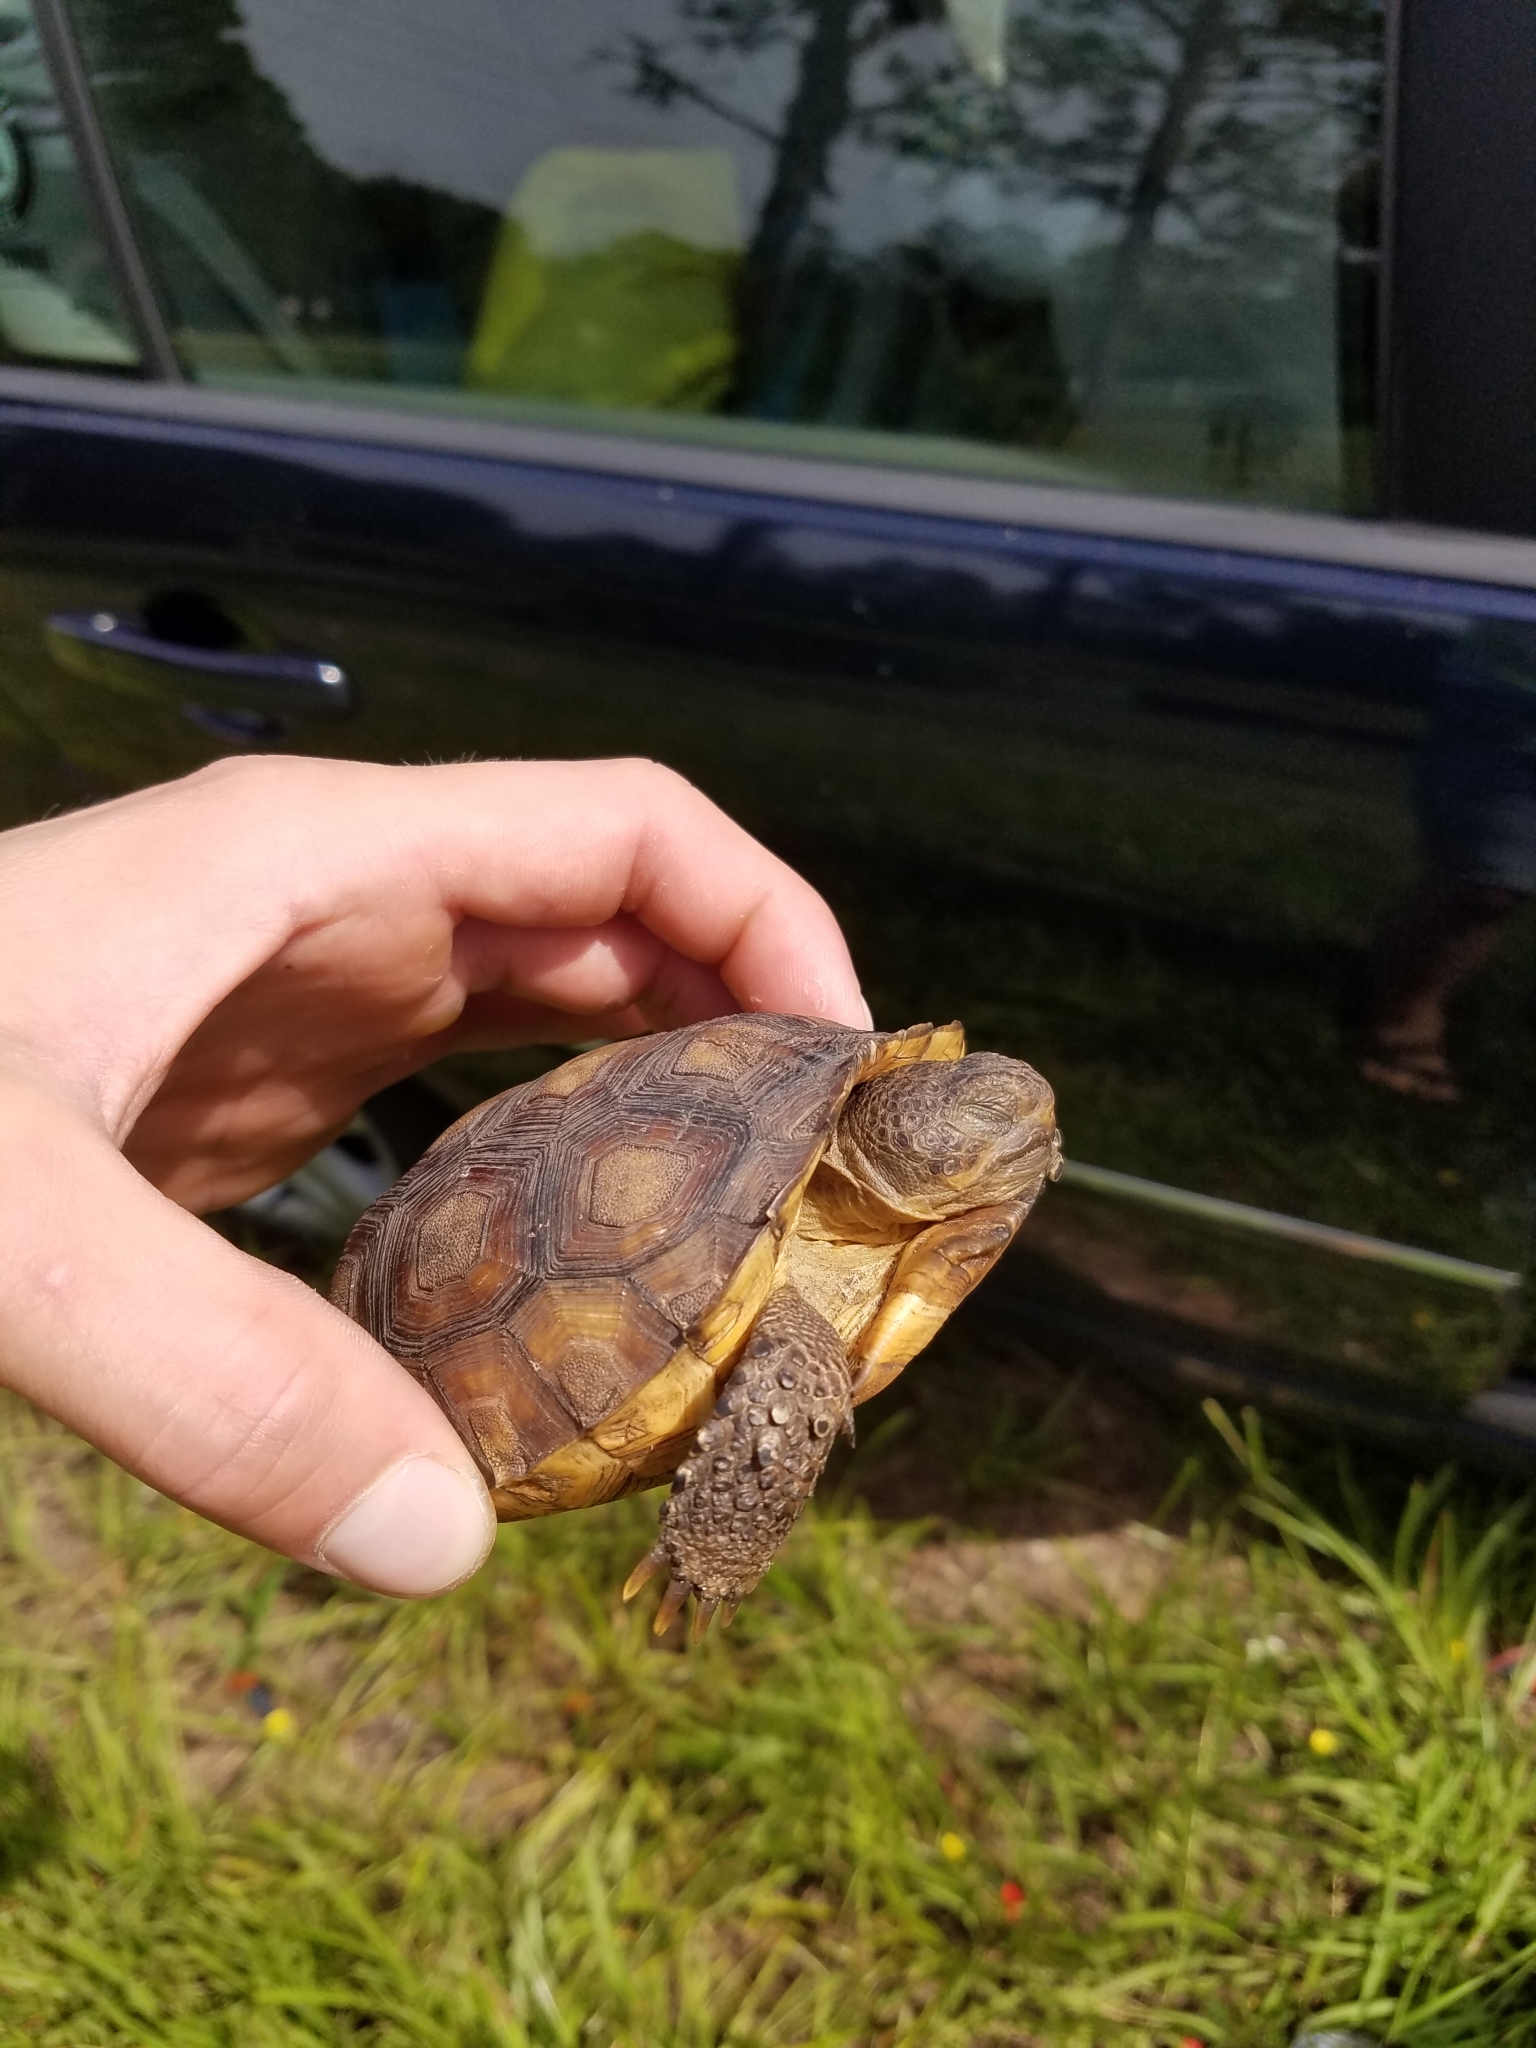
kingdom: Animalia
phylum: Chordata
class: Testudines
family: Testudinidae
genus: Gopherus
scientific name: Gopherus polyphemus
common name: Florida gopher tortoise
